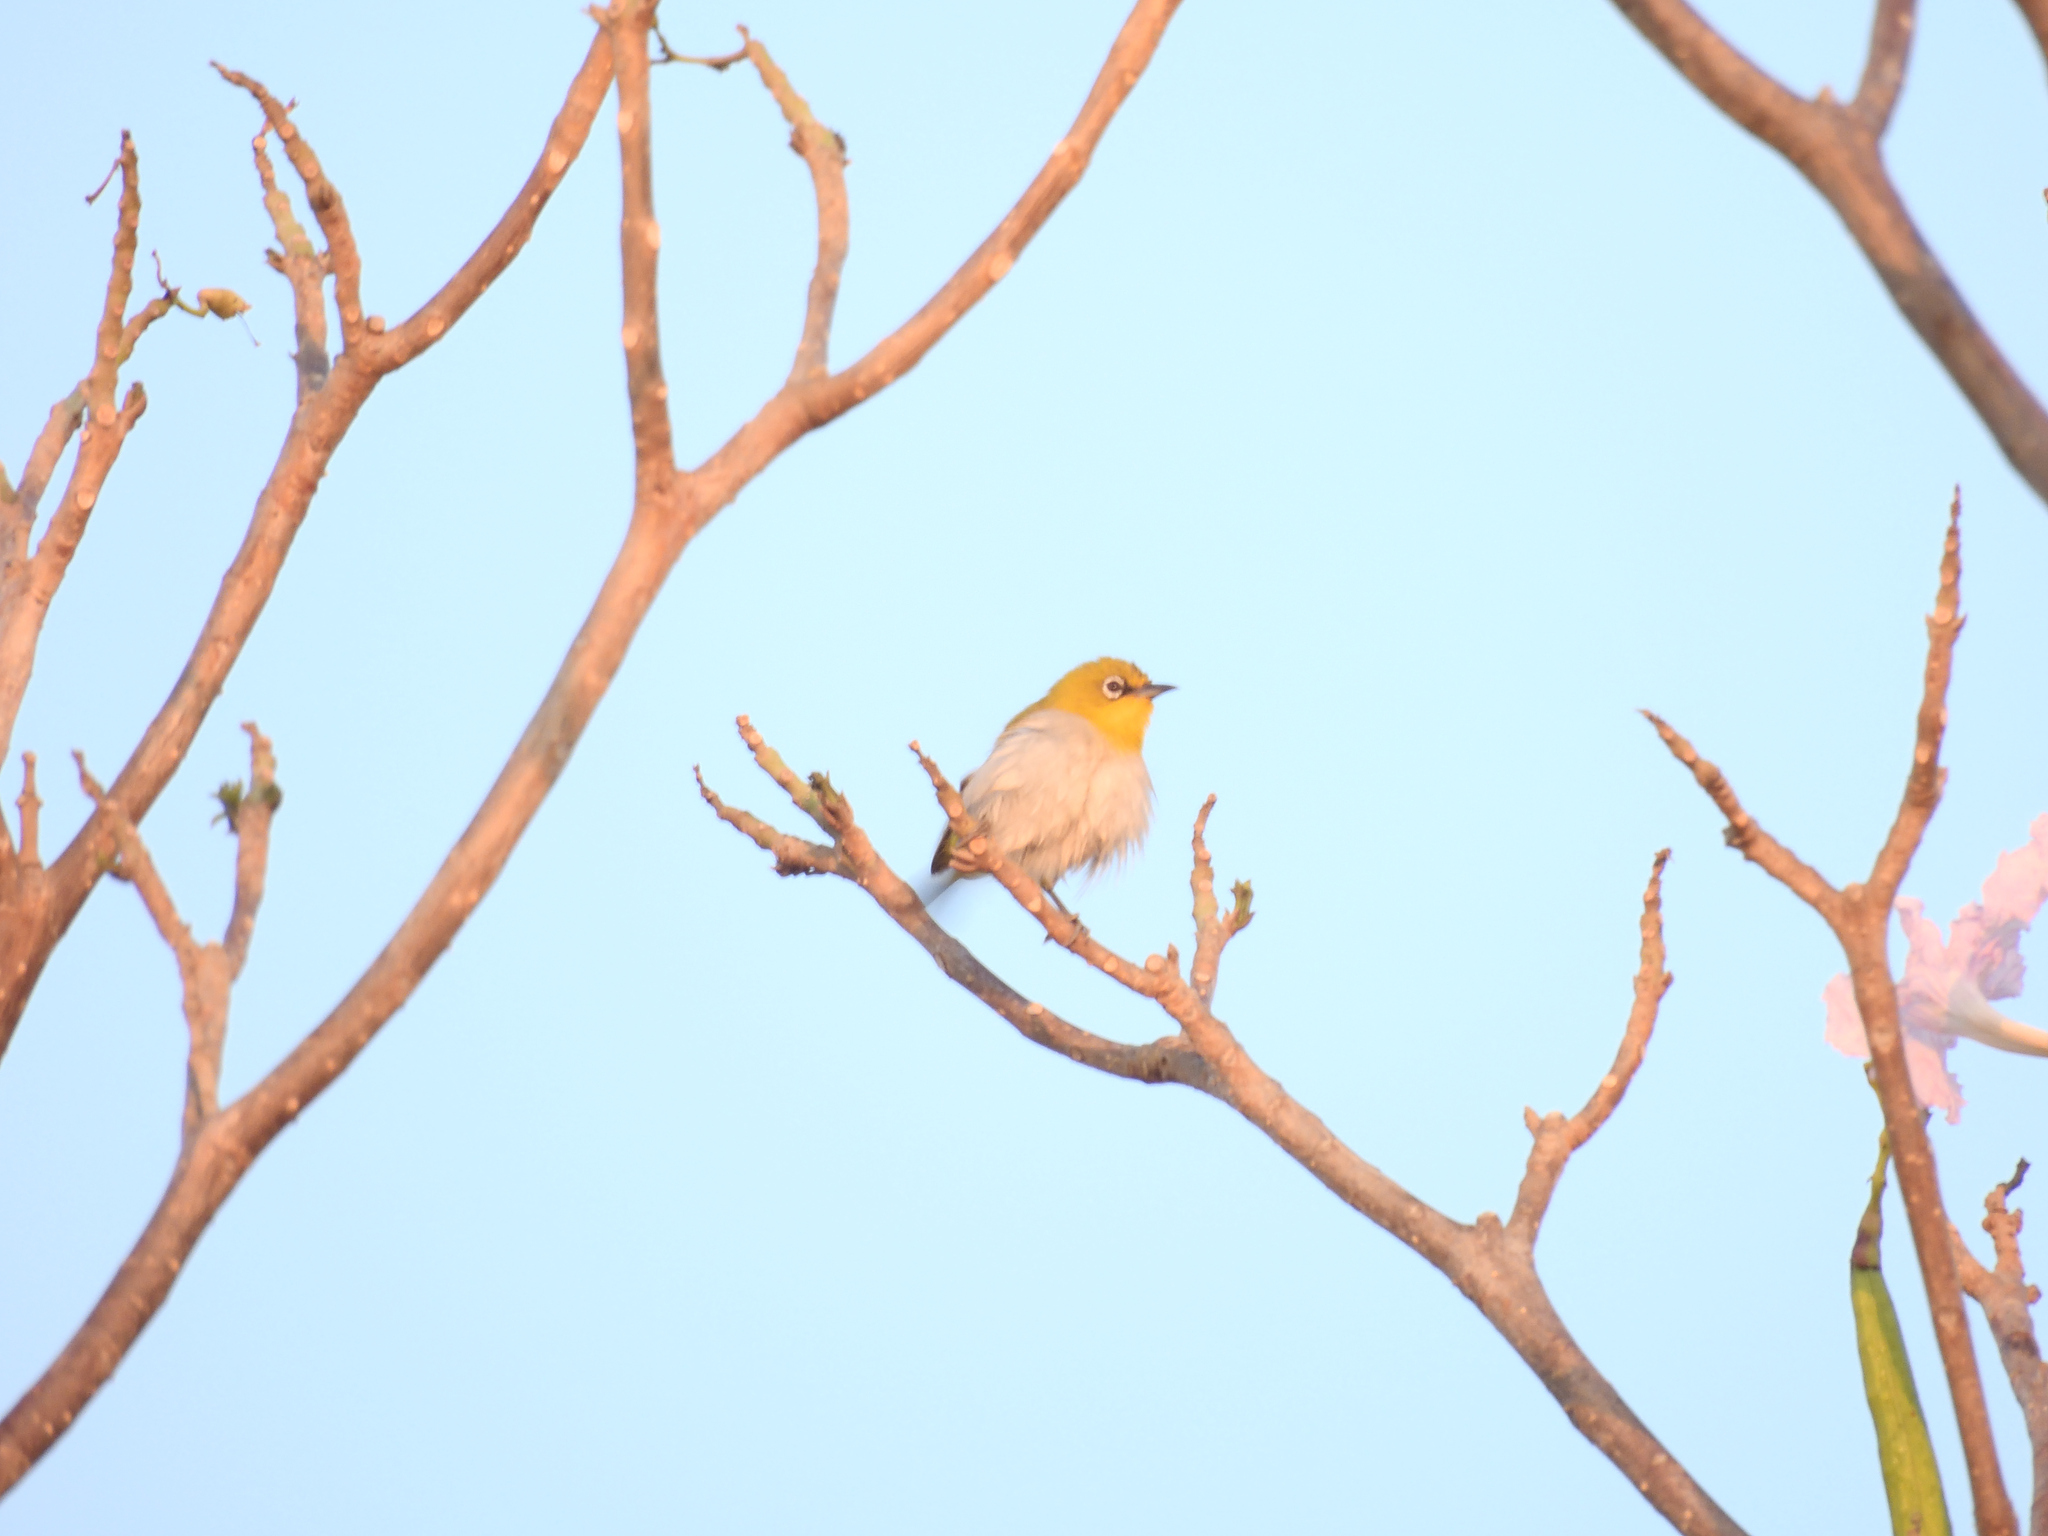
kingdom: Animalia
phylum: Chordata
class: Aves
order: Passeriformes
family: Zosteropidae
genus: Zosterops
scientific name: Zosterops palpebrosus
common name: Oriental white-eye
